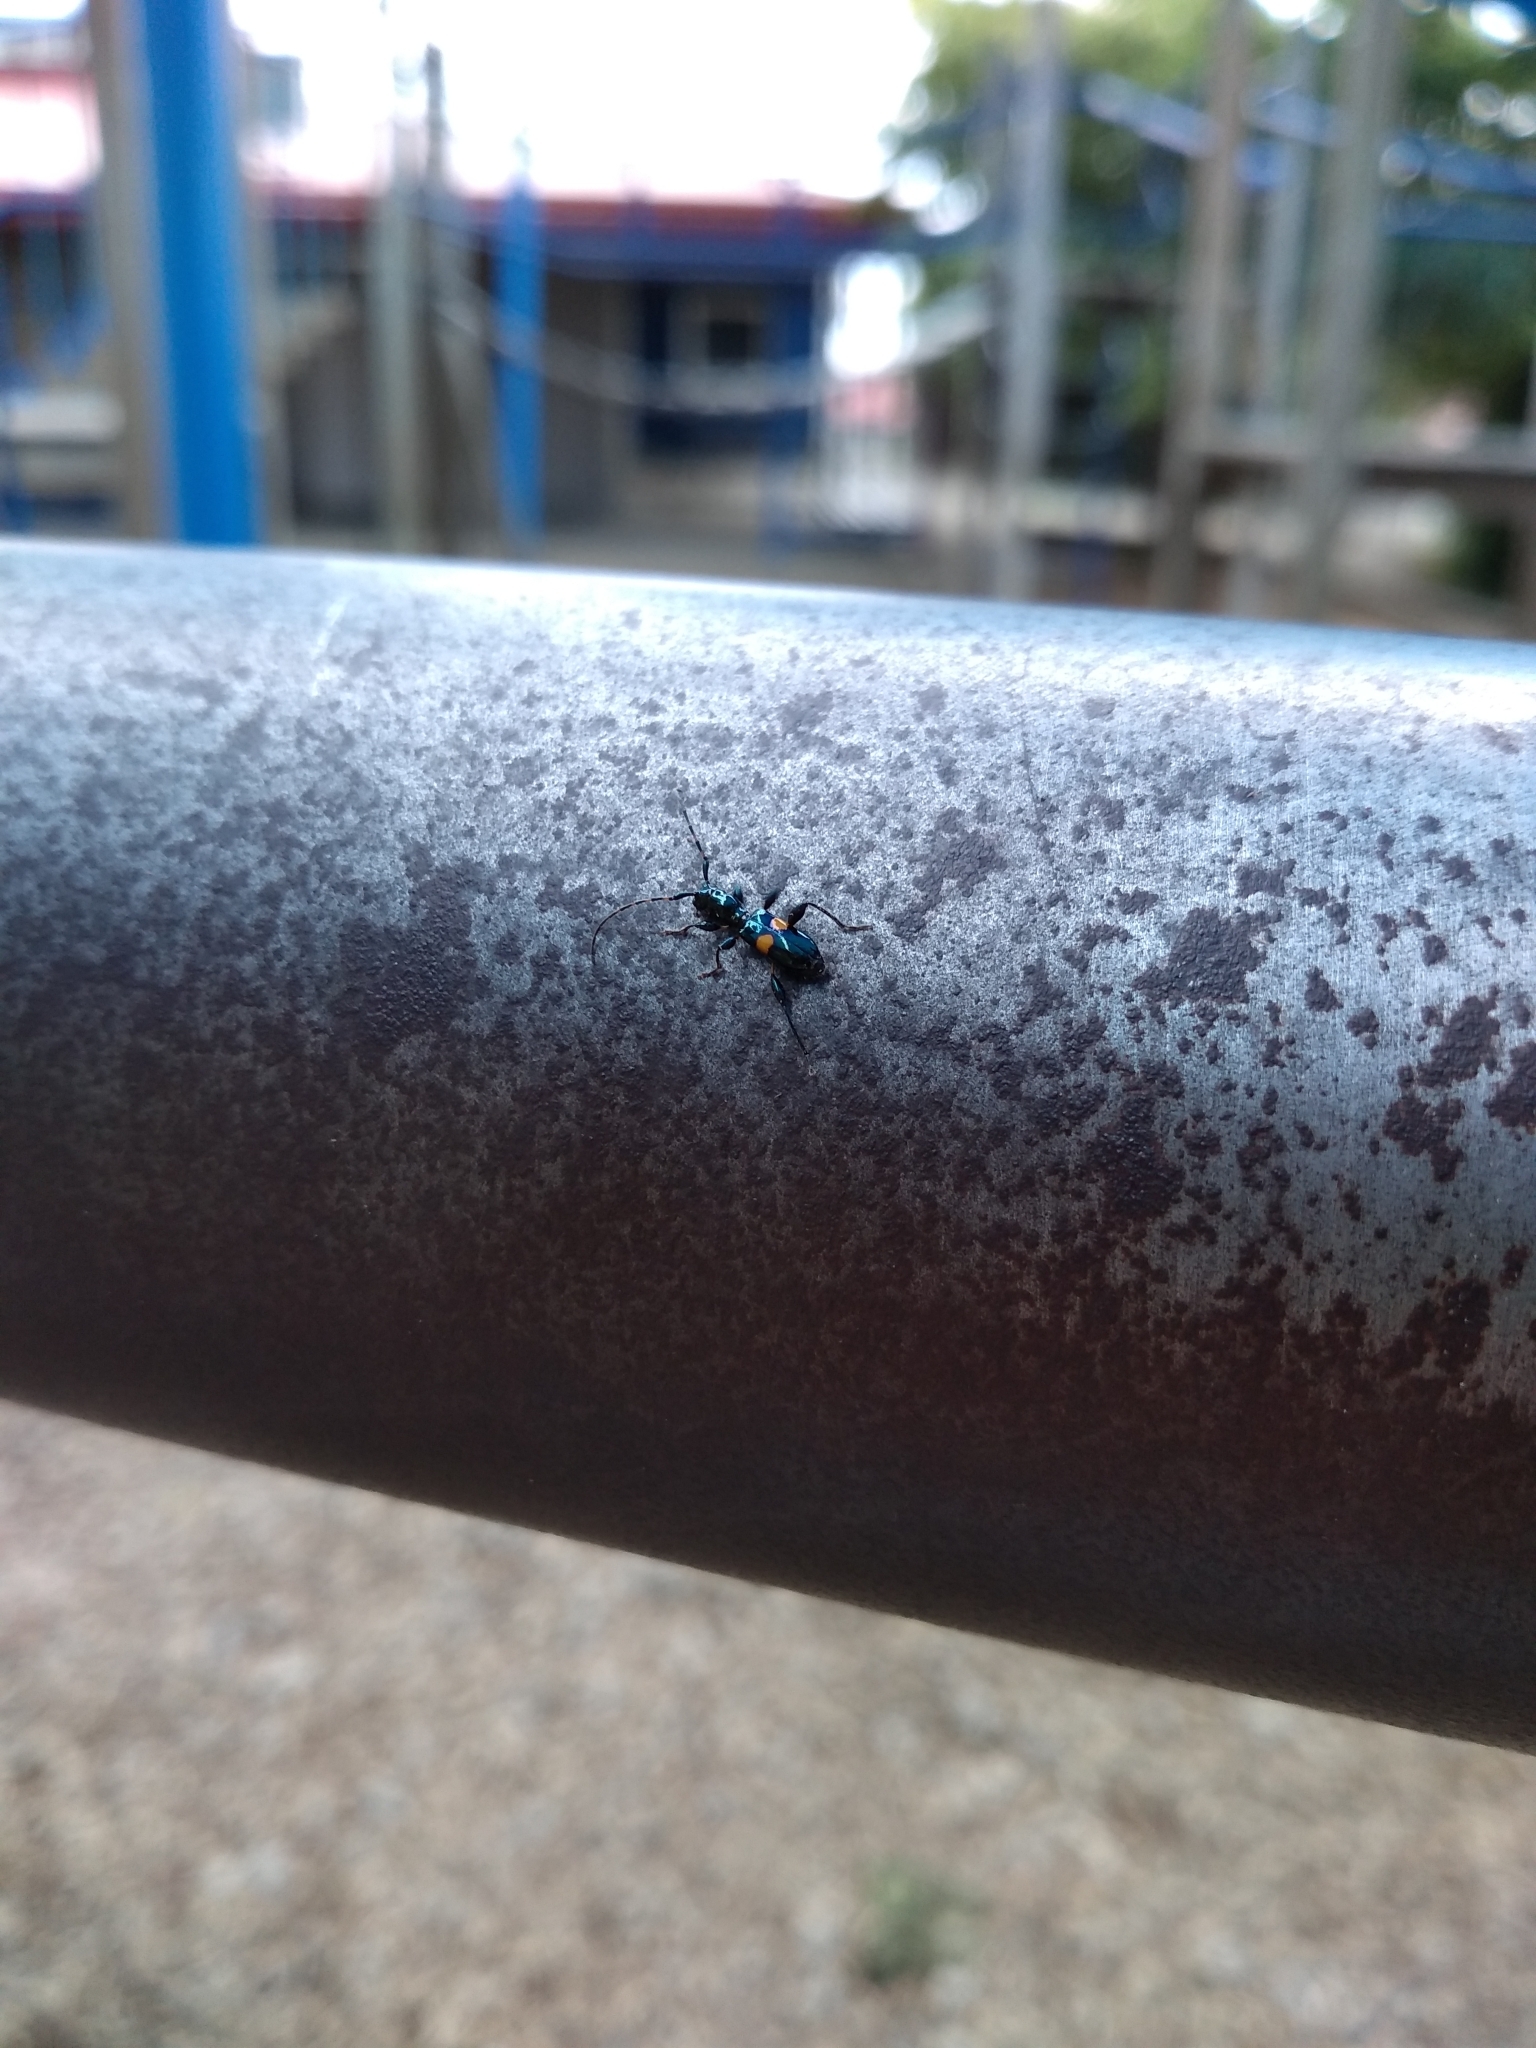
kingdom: Animalia
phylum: Arthropoda
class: Insecta
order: Coleoptera
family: Cerambycidae
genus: Zorion
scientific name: Zorion guttigerum
